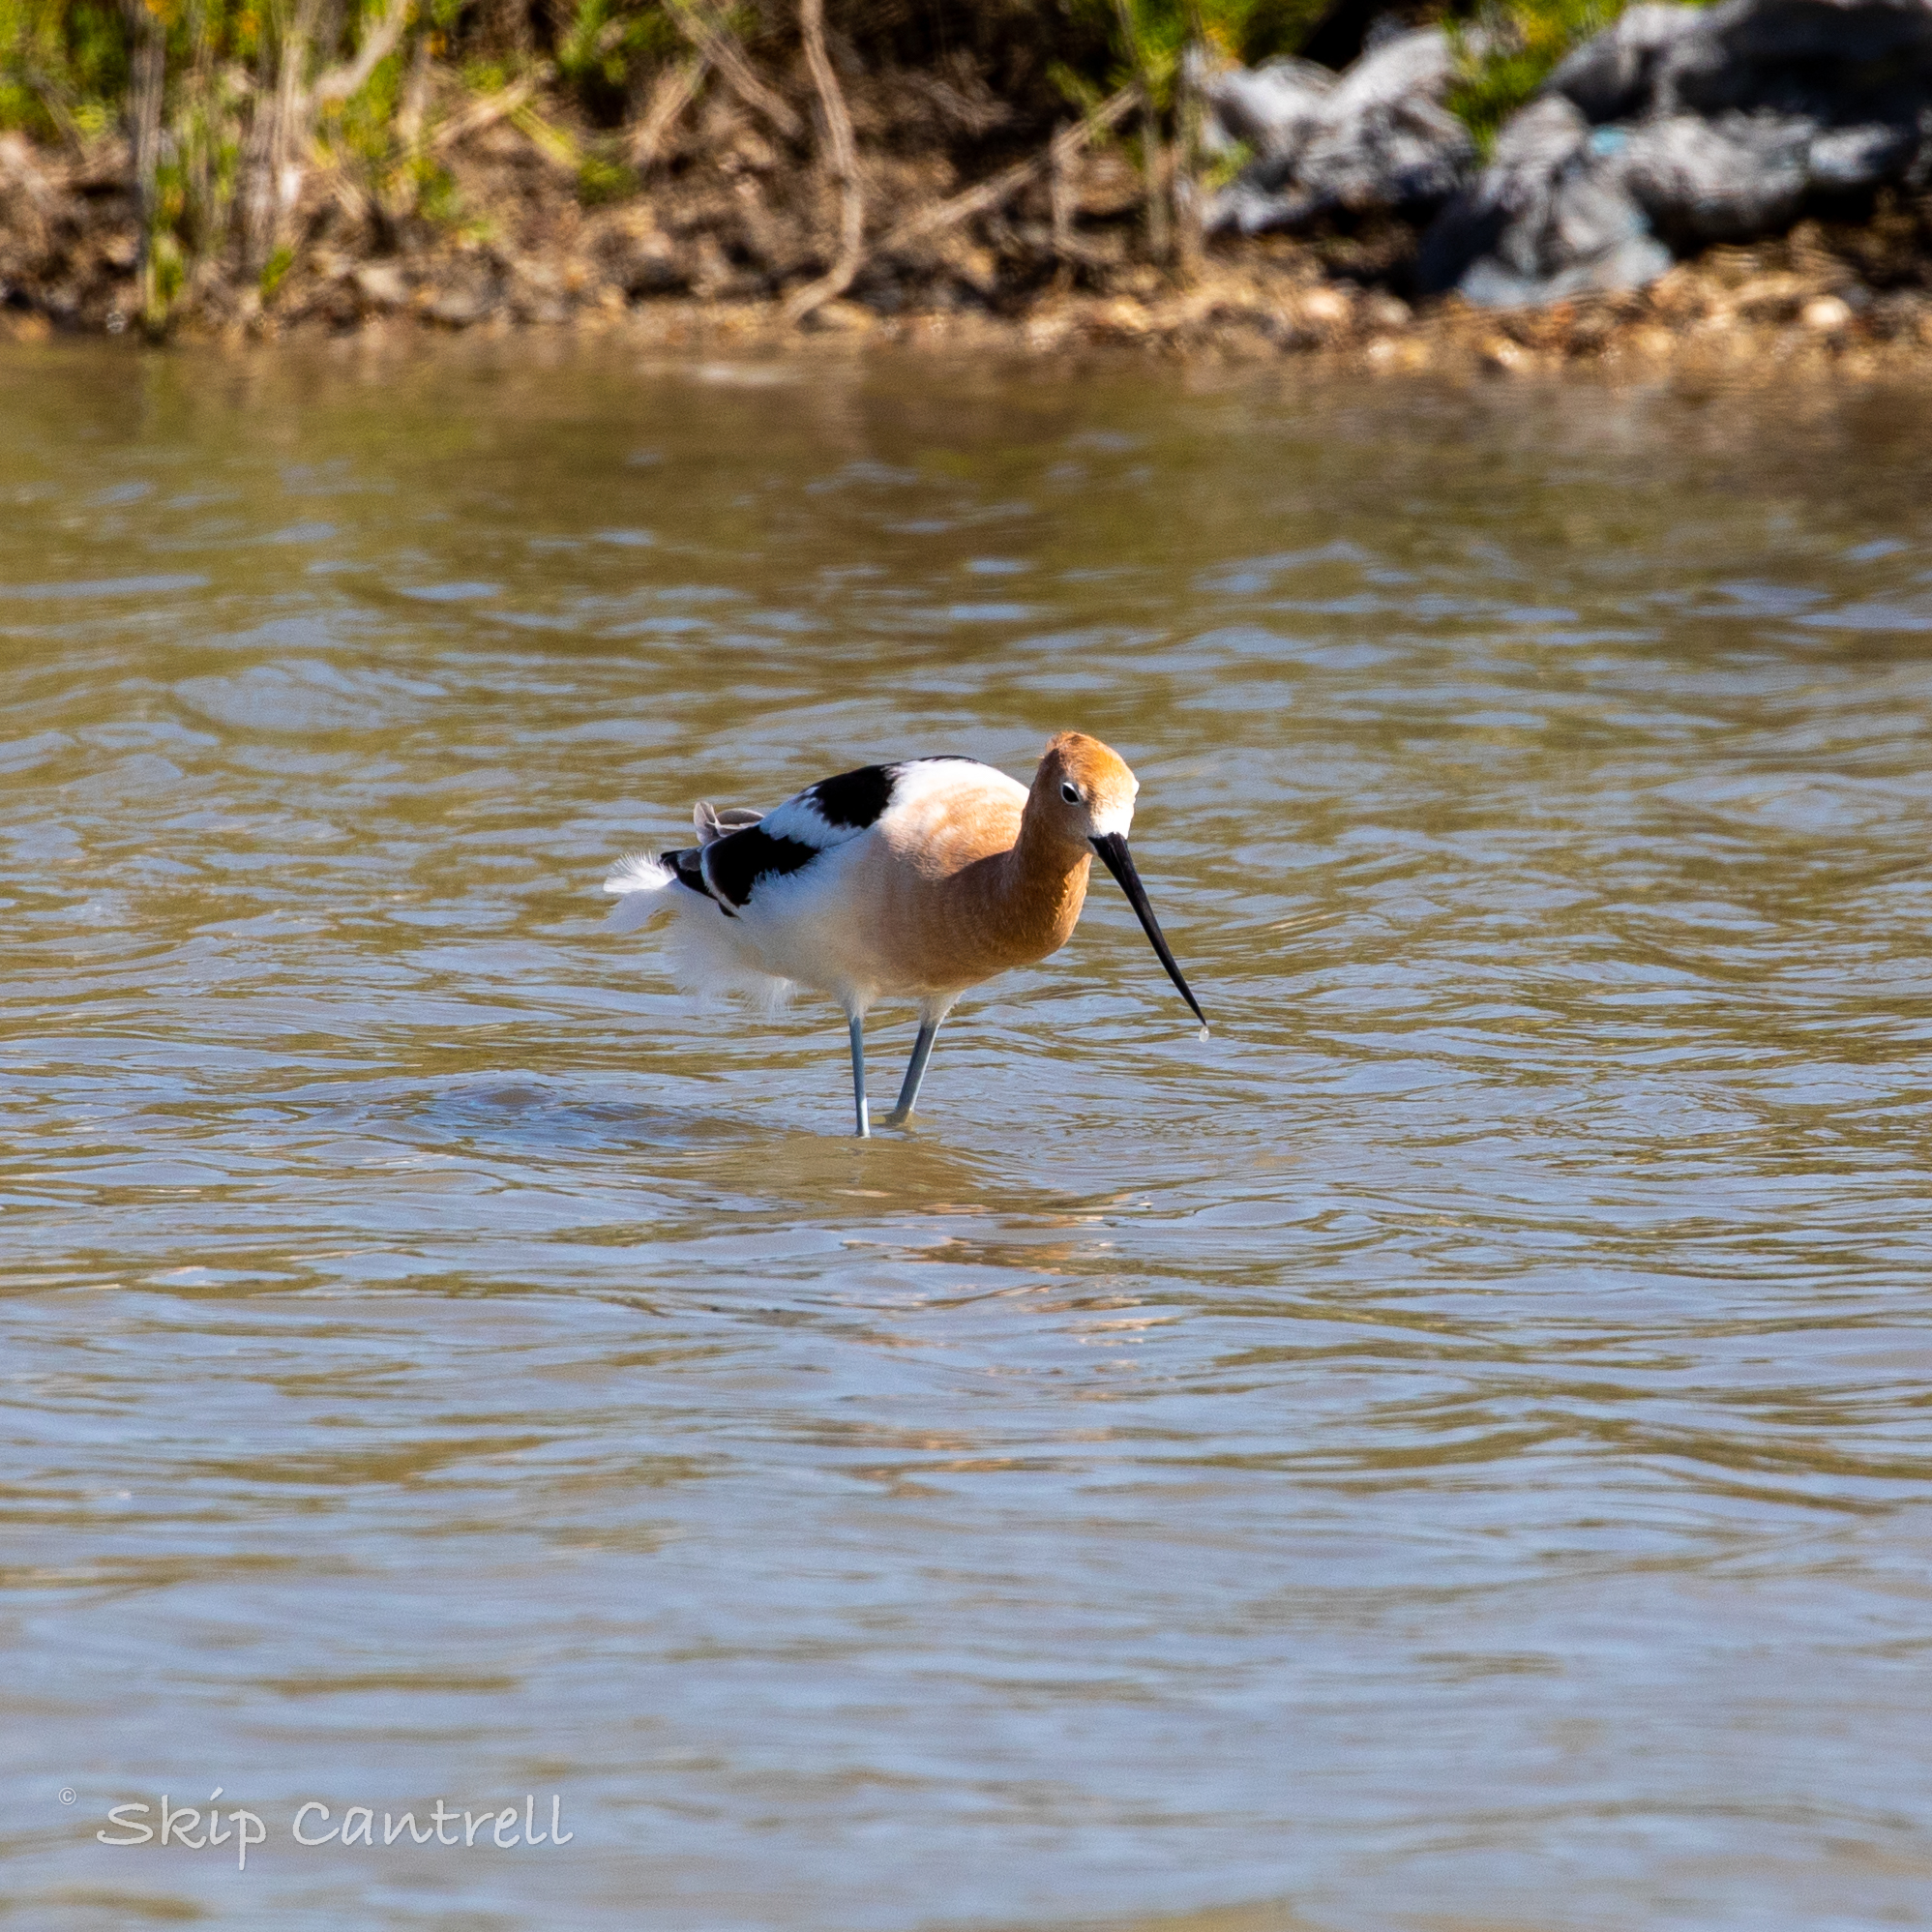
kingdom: Animalia
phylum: Chordata
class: Aves
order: Charadriiformes
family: Recurvirostridae
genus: Recurvirostra
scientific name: Recurvirostra americana
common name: American avocet
